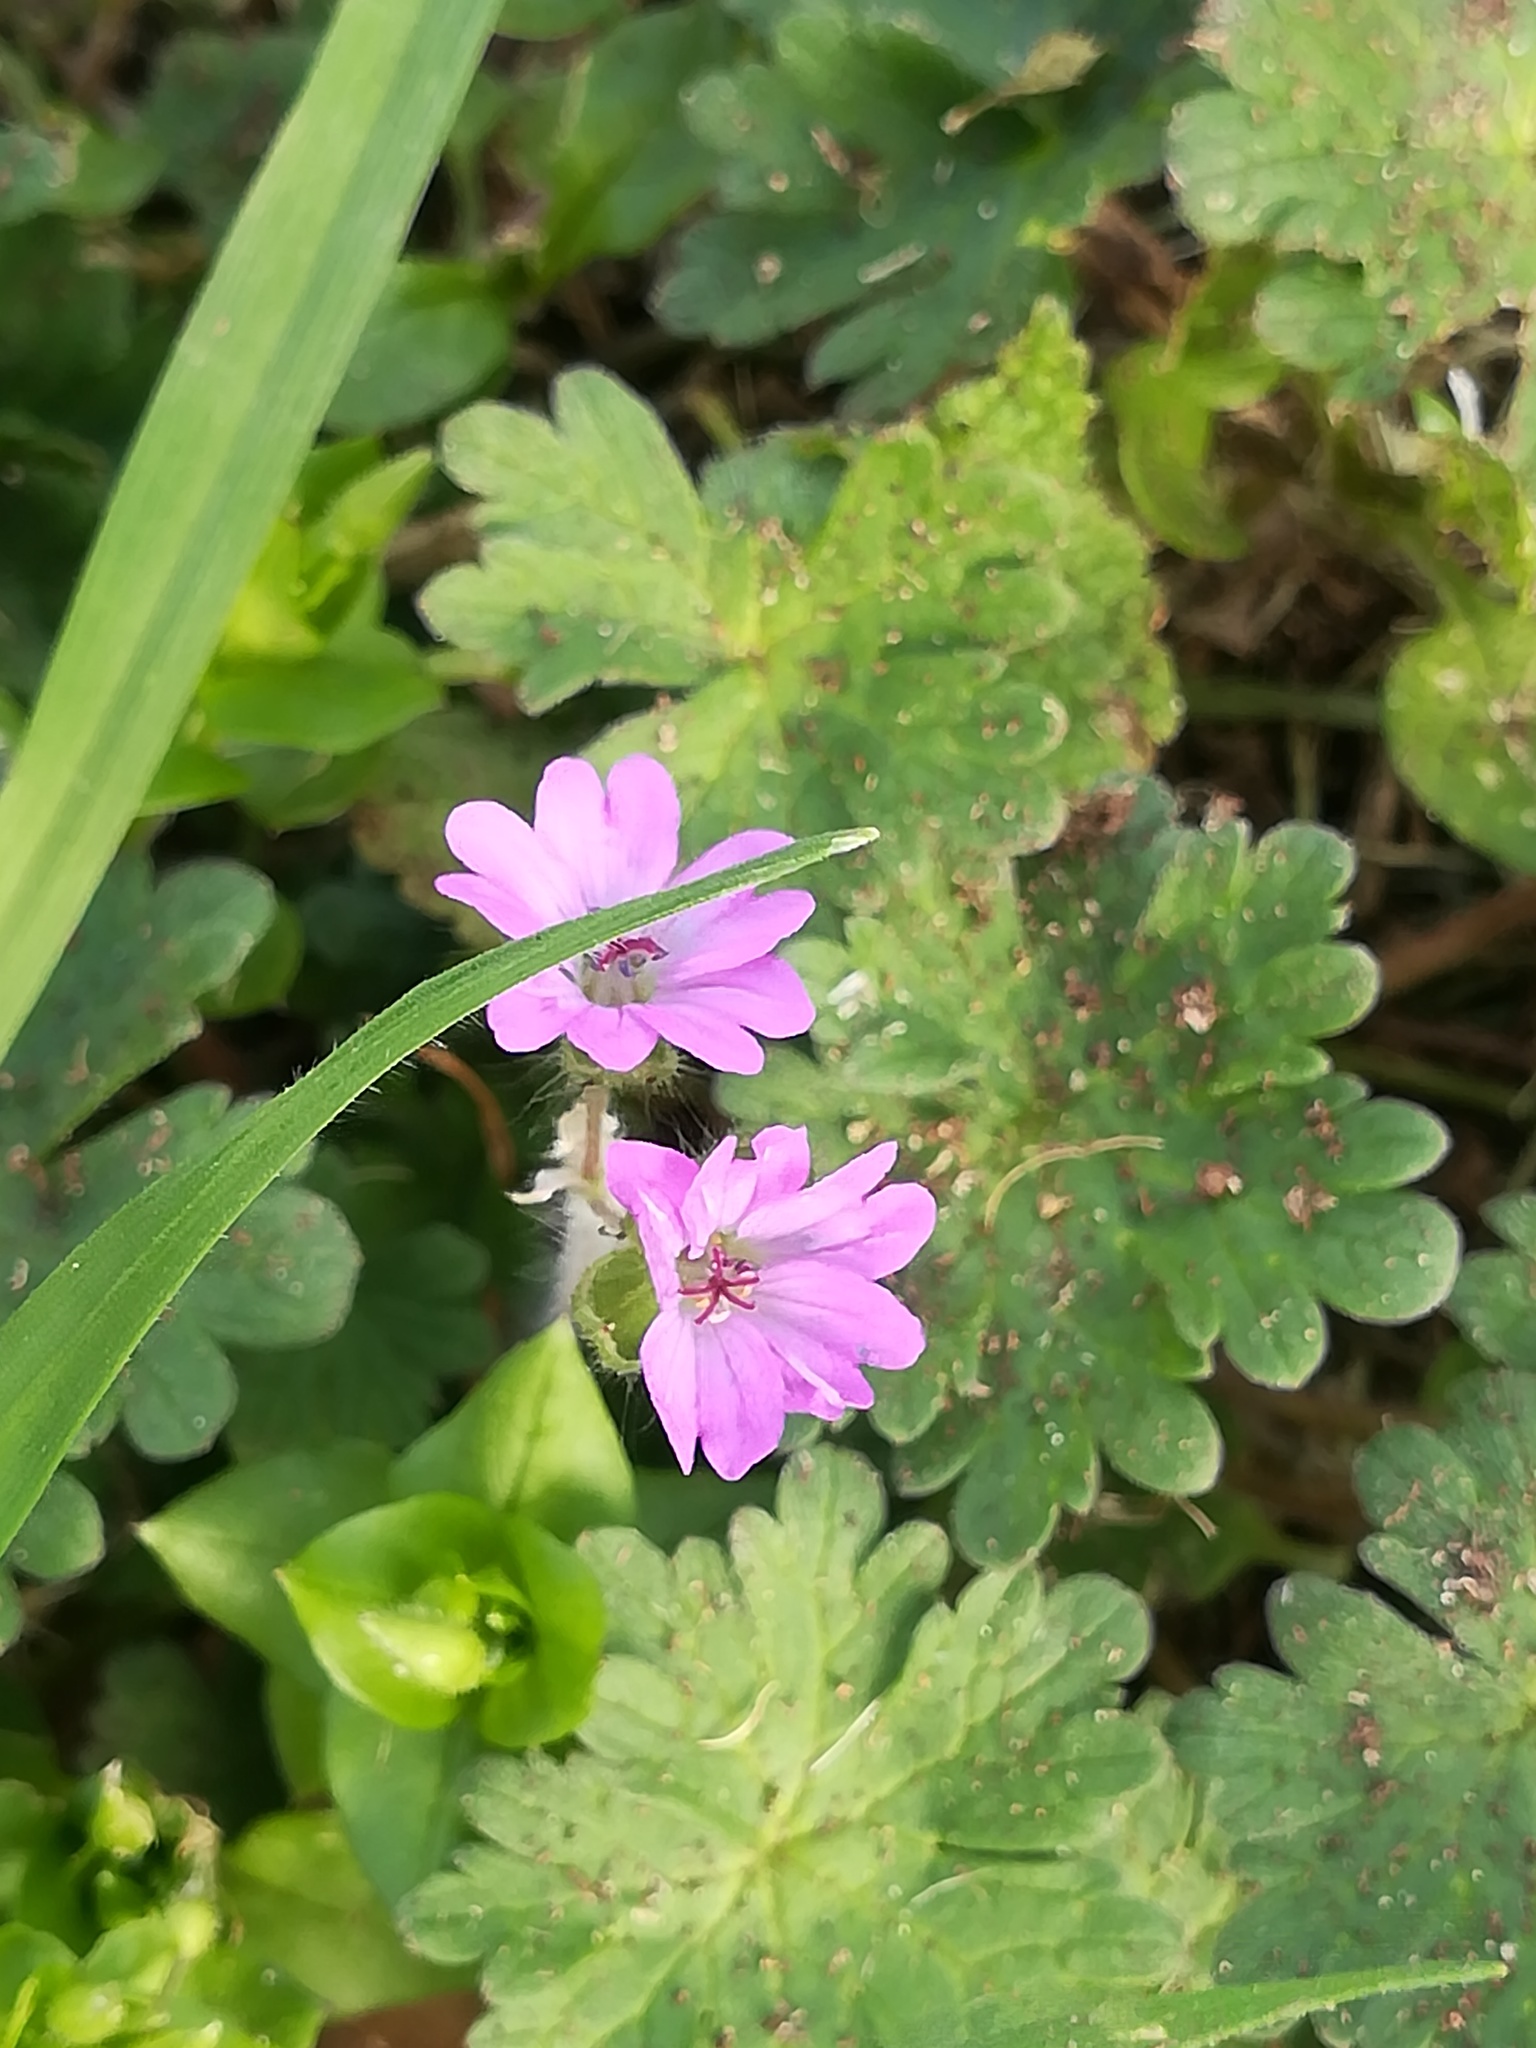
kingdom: Plantae
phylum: Tracheophyta
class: Magnoliopsida
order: Geraniales
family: Geraniaceae
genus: Geranium
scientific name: Geranium molle
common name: Dove's-foot crane's-bill
